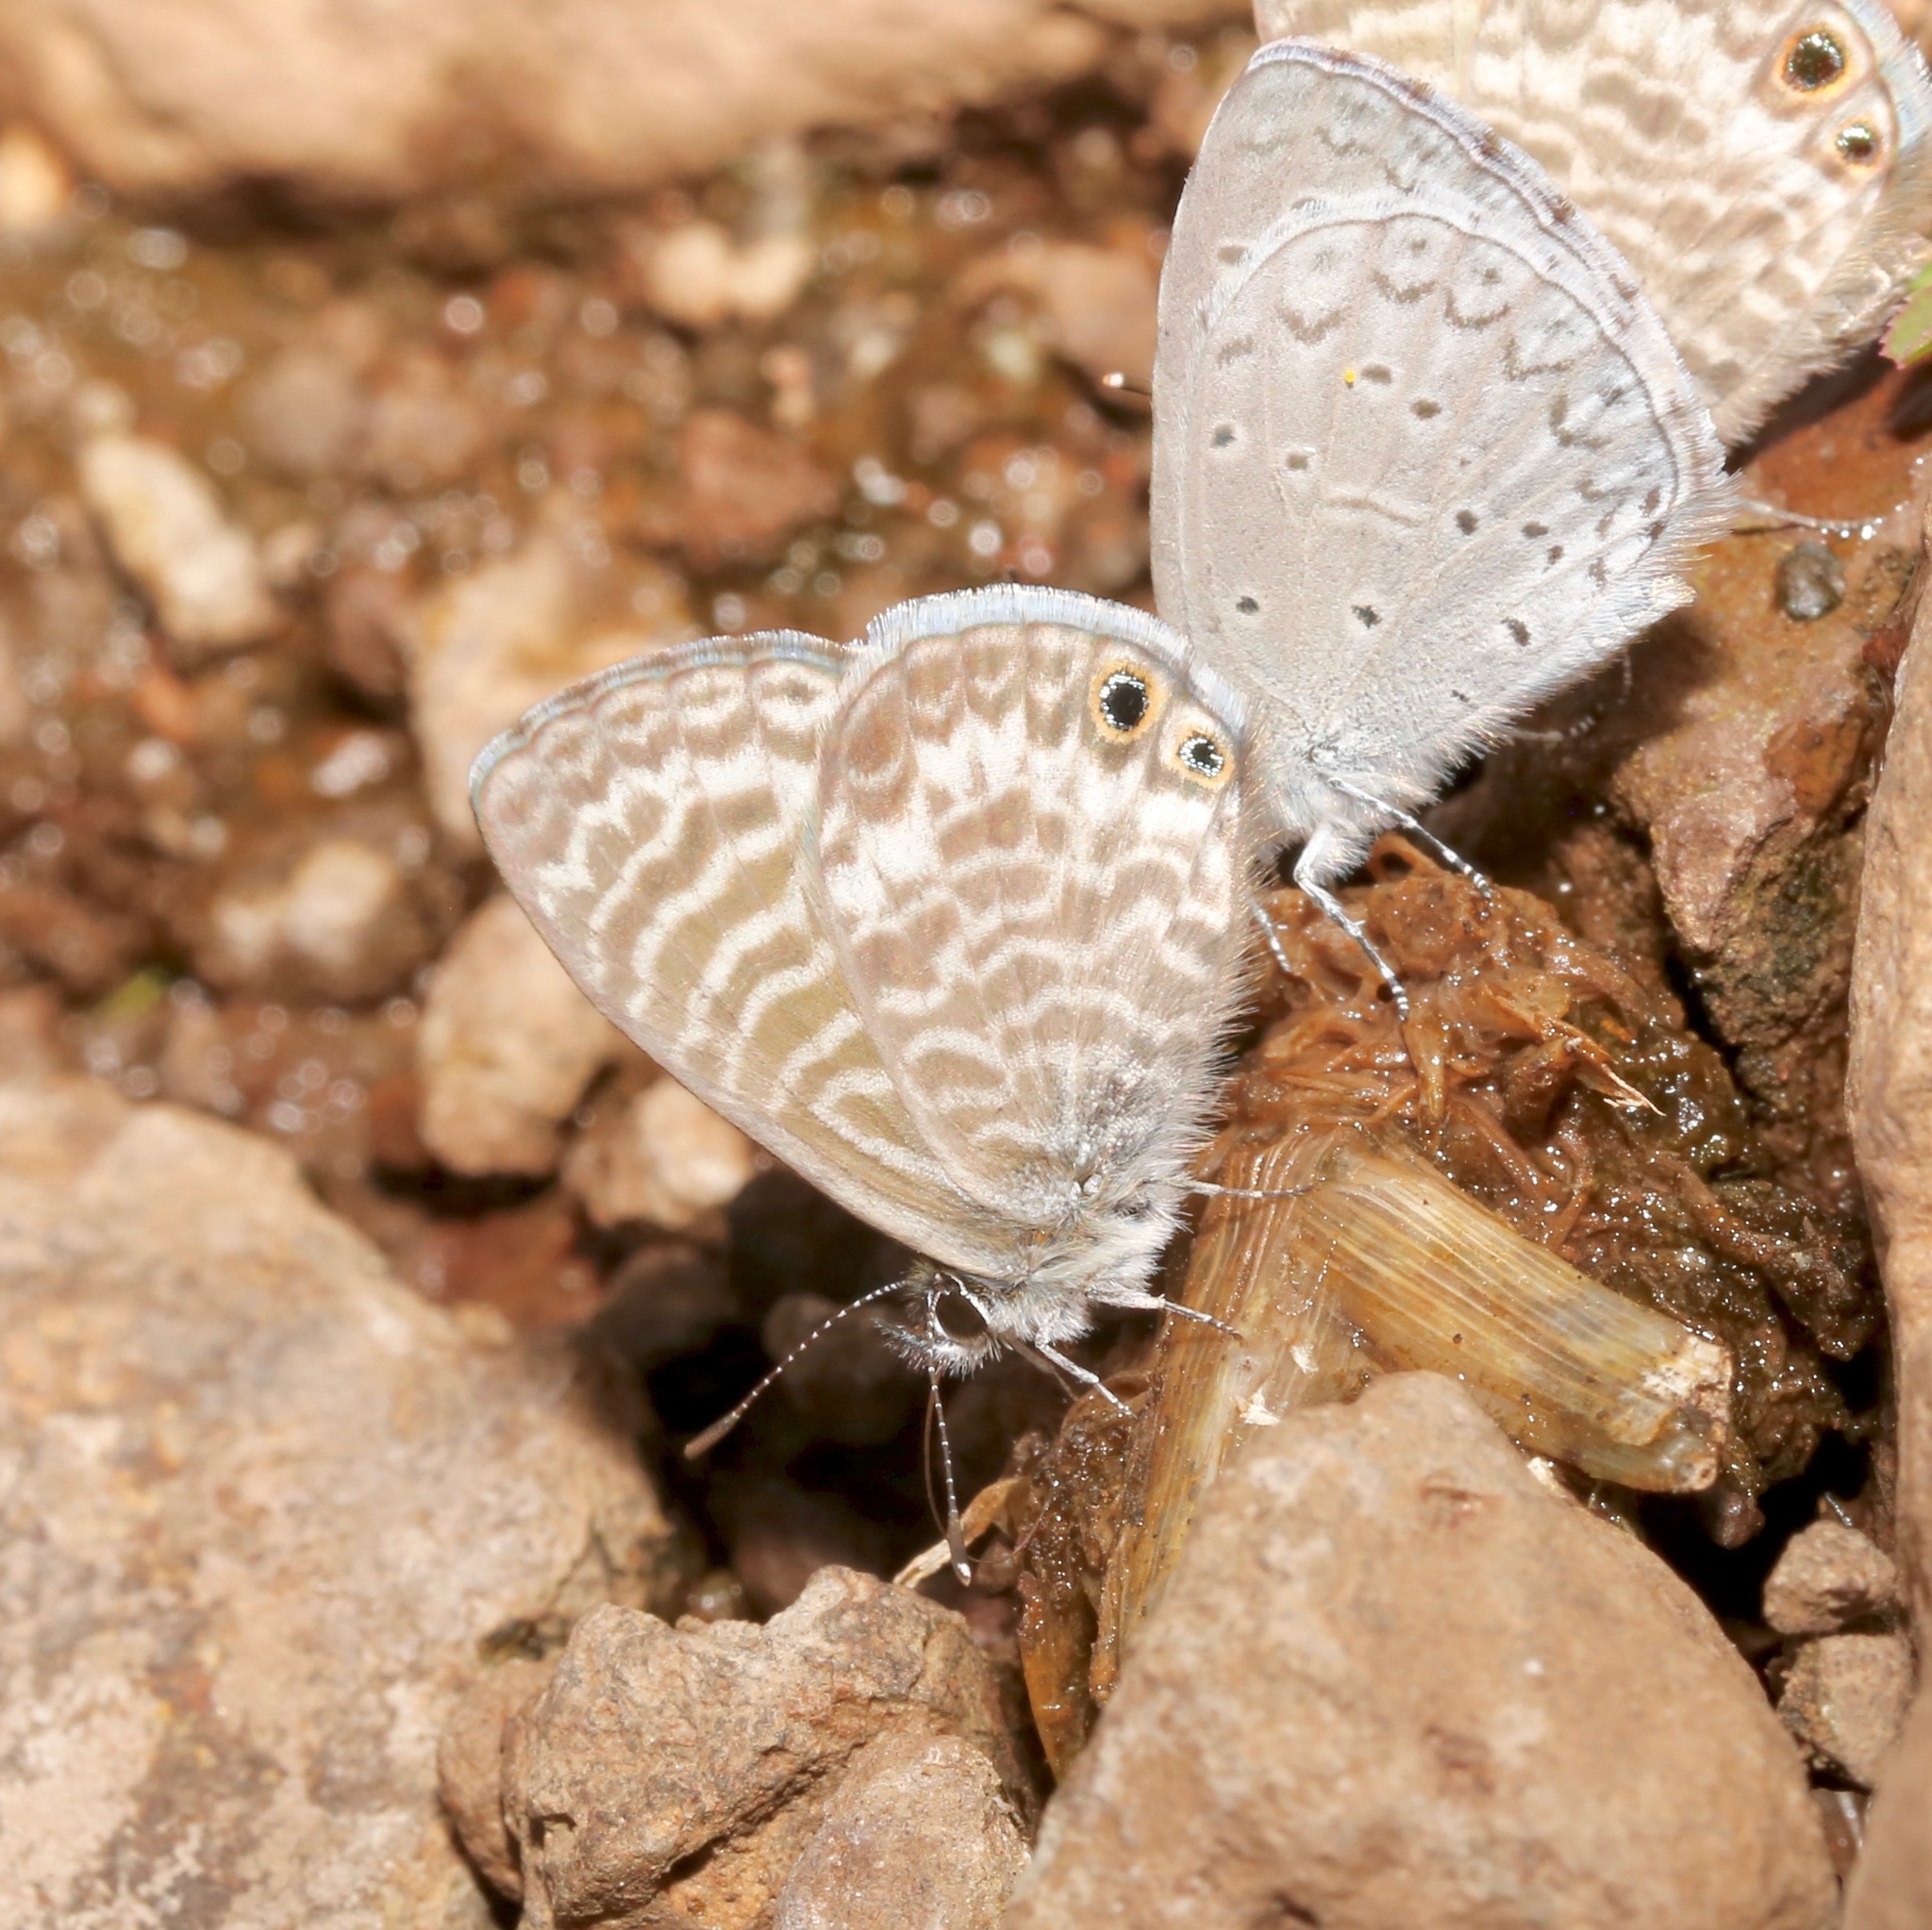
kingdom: Animalia
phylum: Arthropoda
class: Insecta
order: Lepidoptera
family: Lycaenidae
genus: Leptotes
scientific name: Leptotes marina
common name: Marine blue
